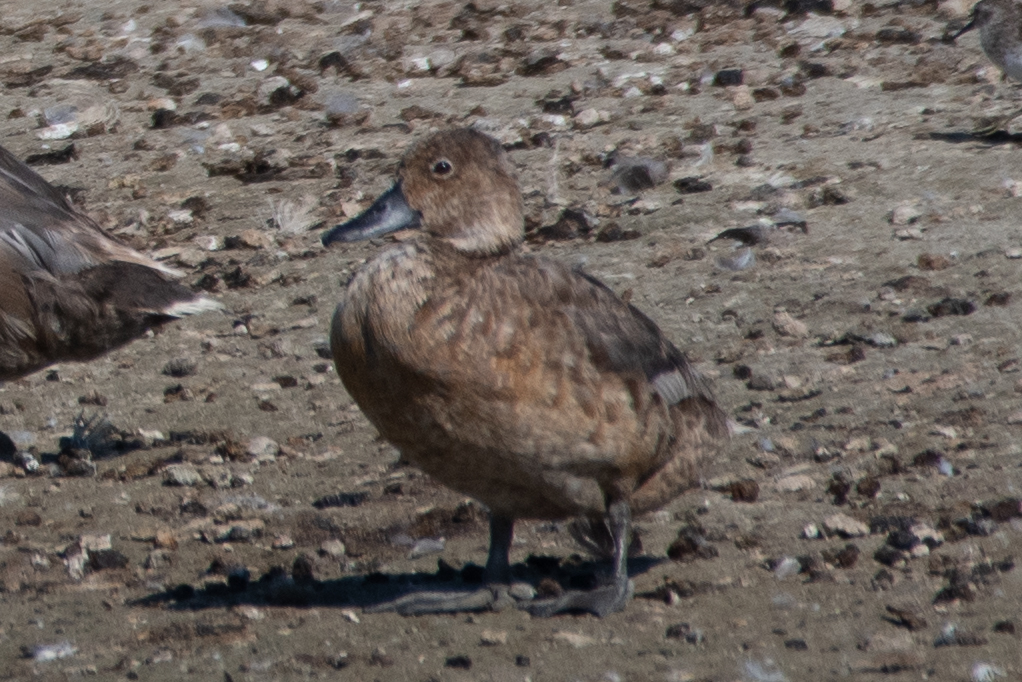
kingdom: Animalia
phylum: Chordata
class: Aves
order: Anseriformes
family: Anatidae
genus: Aythya
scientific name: Aythya americana
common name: Redhead
